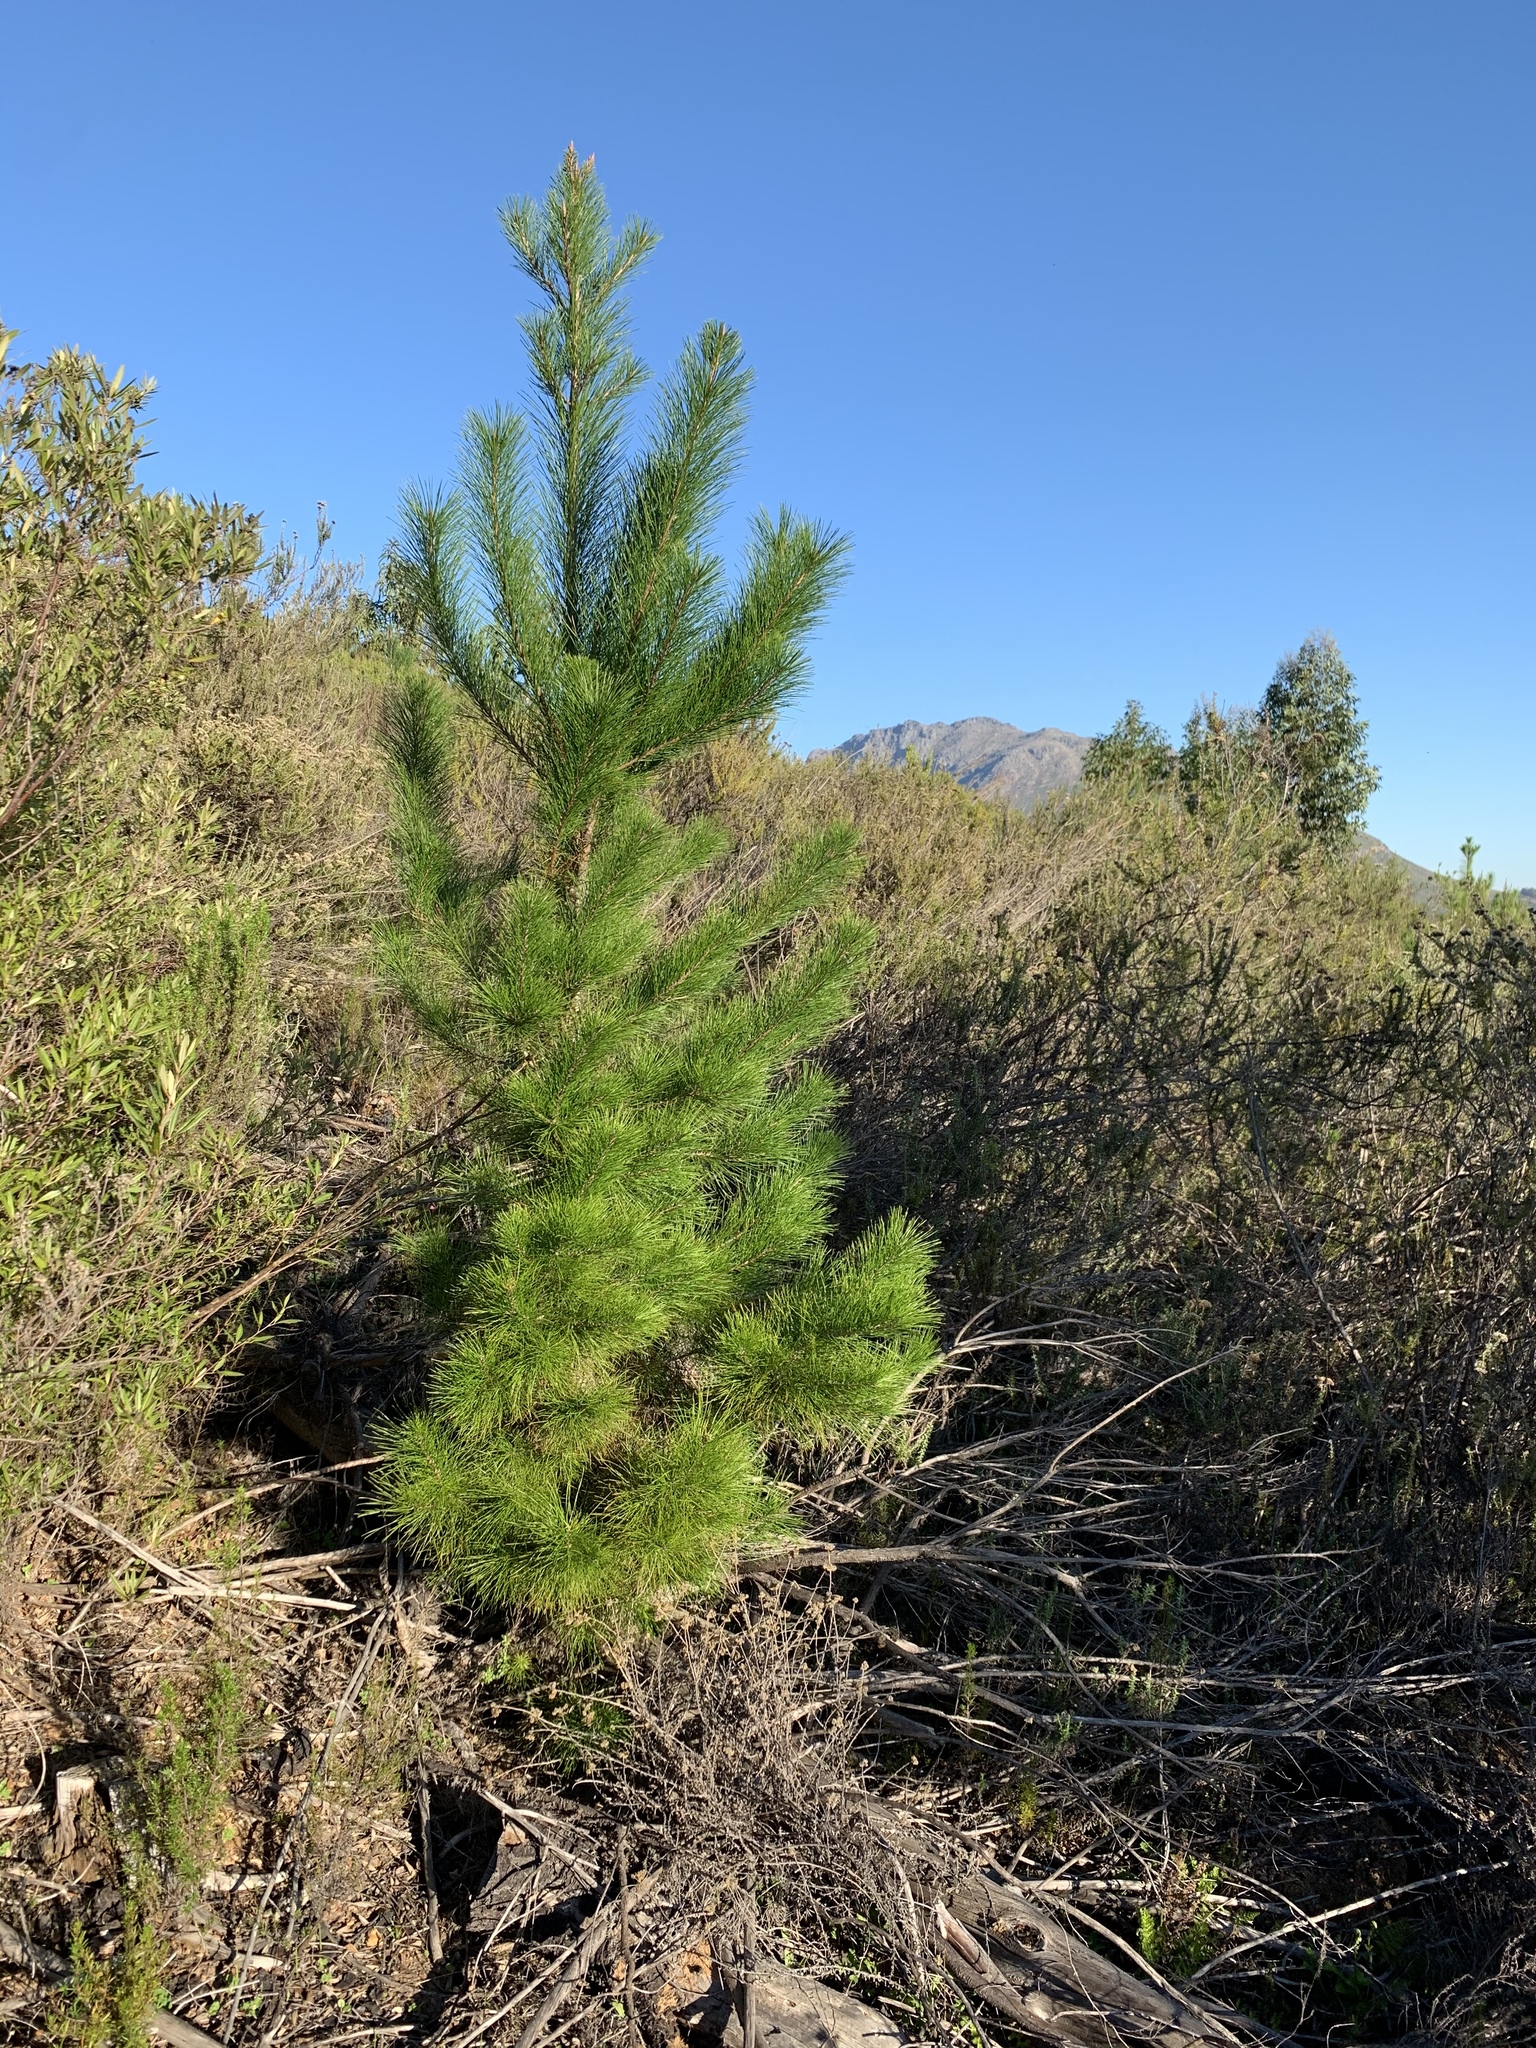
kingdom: Plantae
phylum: Tracheophyta
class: Pinopsida
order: Pinales
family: Pinaceae
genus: Pinus
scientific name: Pinus radiata
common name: Monterey pine
